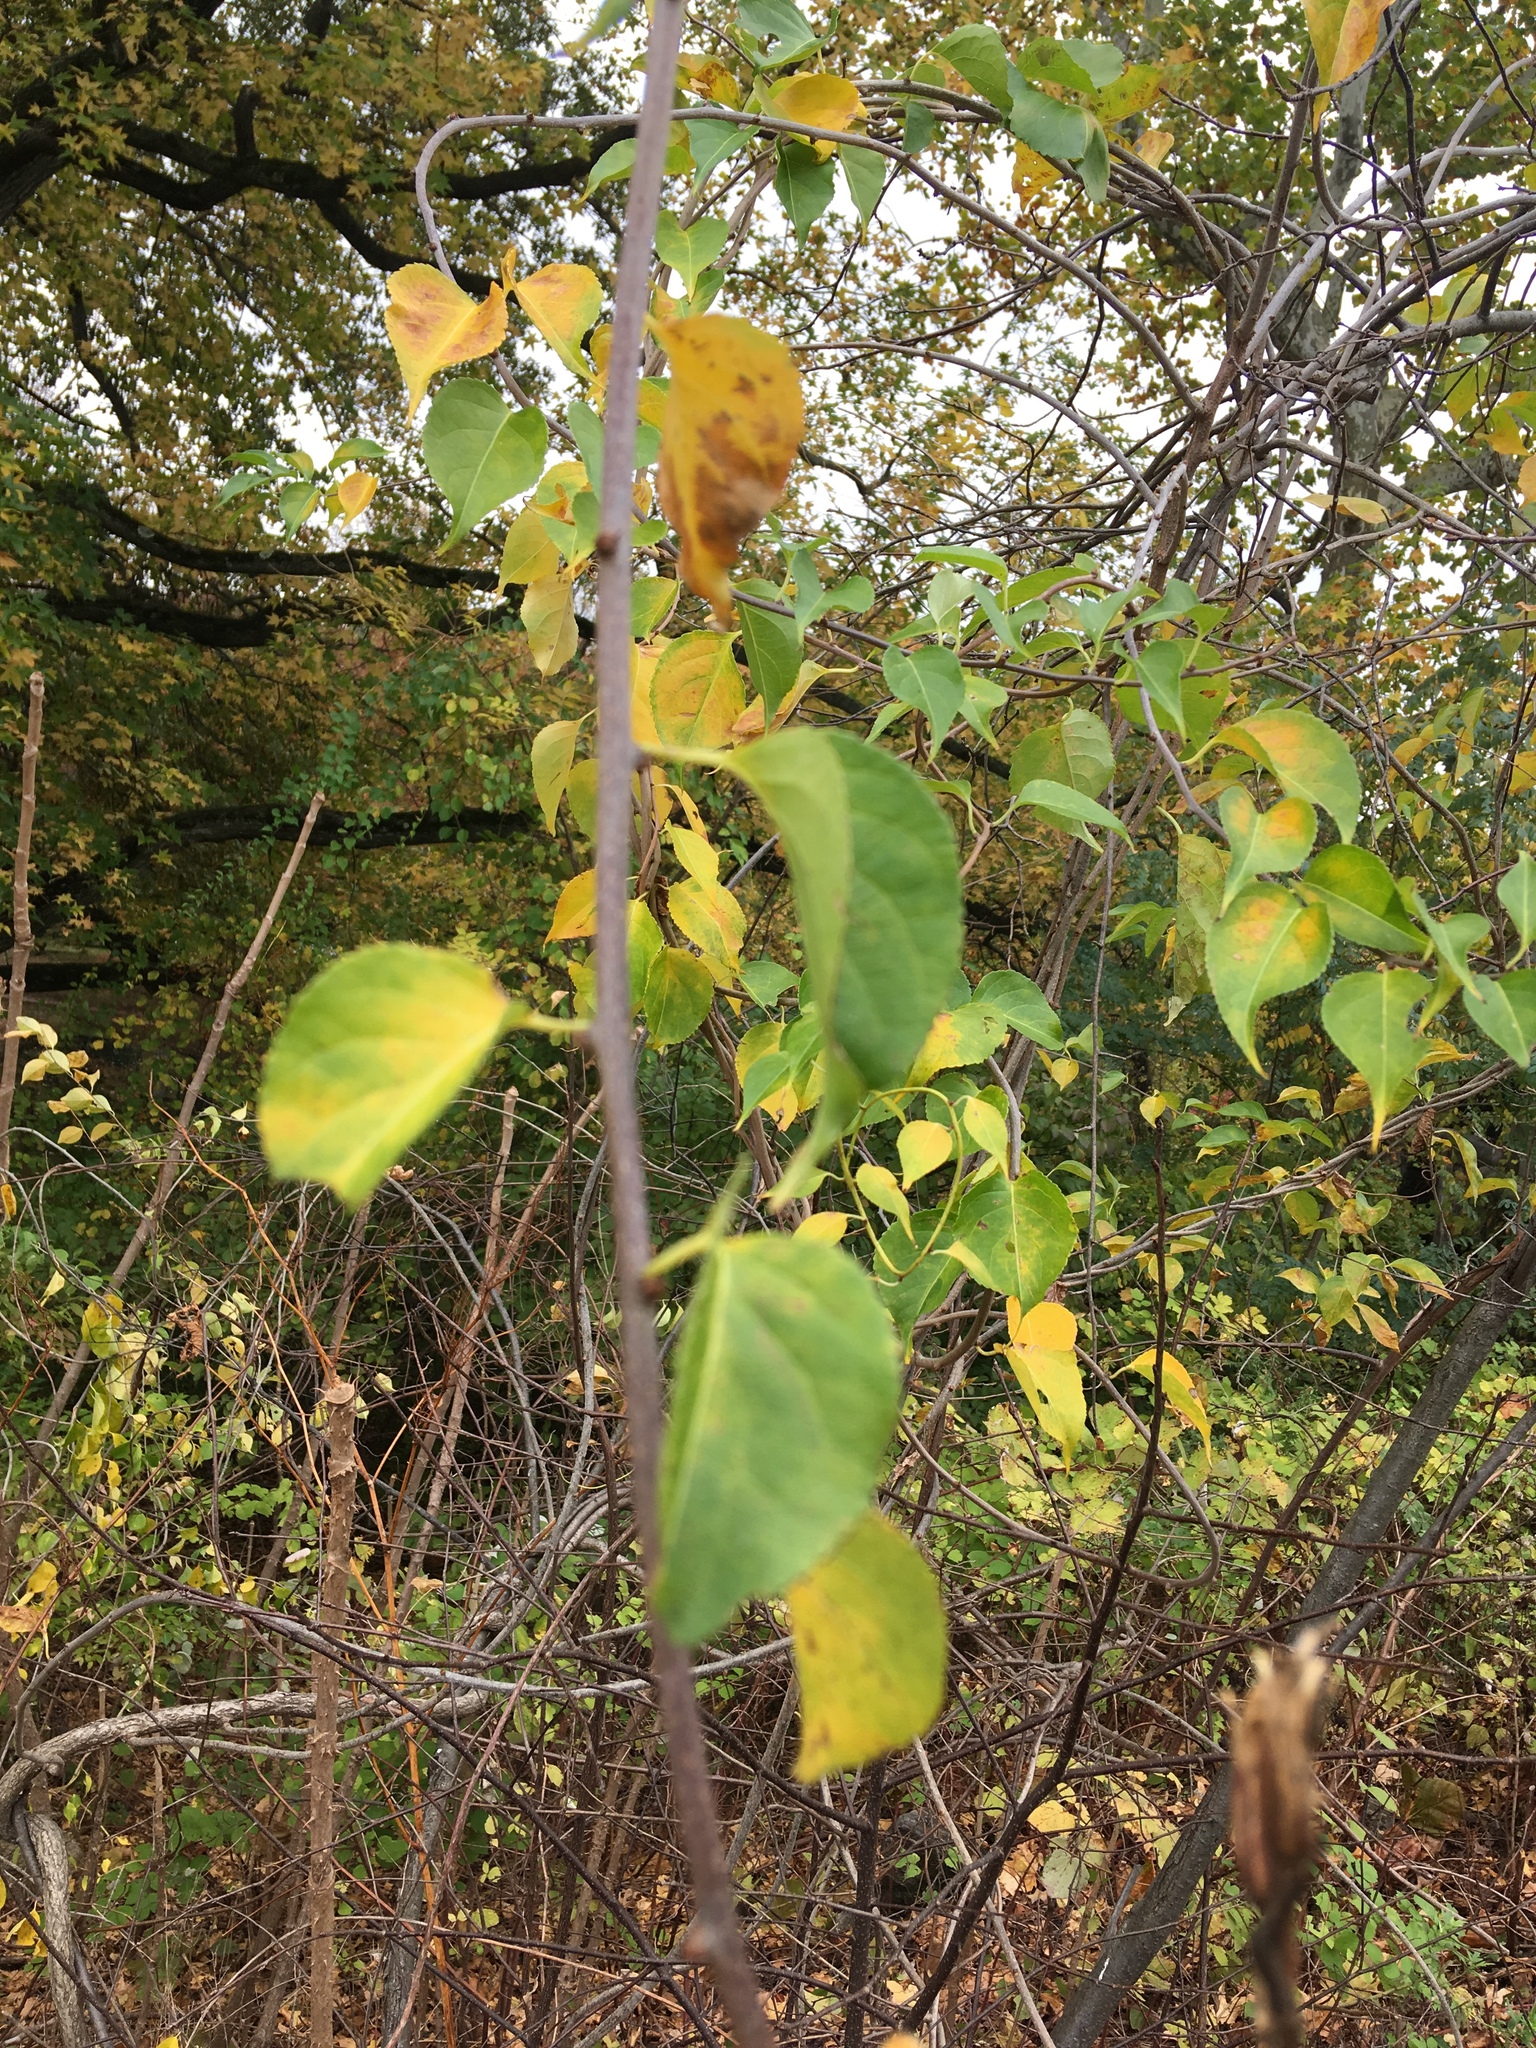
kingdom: Plantae
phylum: Tracheophyta
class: Magnoliopsida
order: Celastrales
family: Celastraceae
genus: Celastrus
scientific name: Celastrus orbiculatus
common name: Oriental bittersweet
